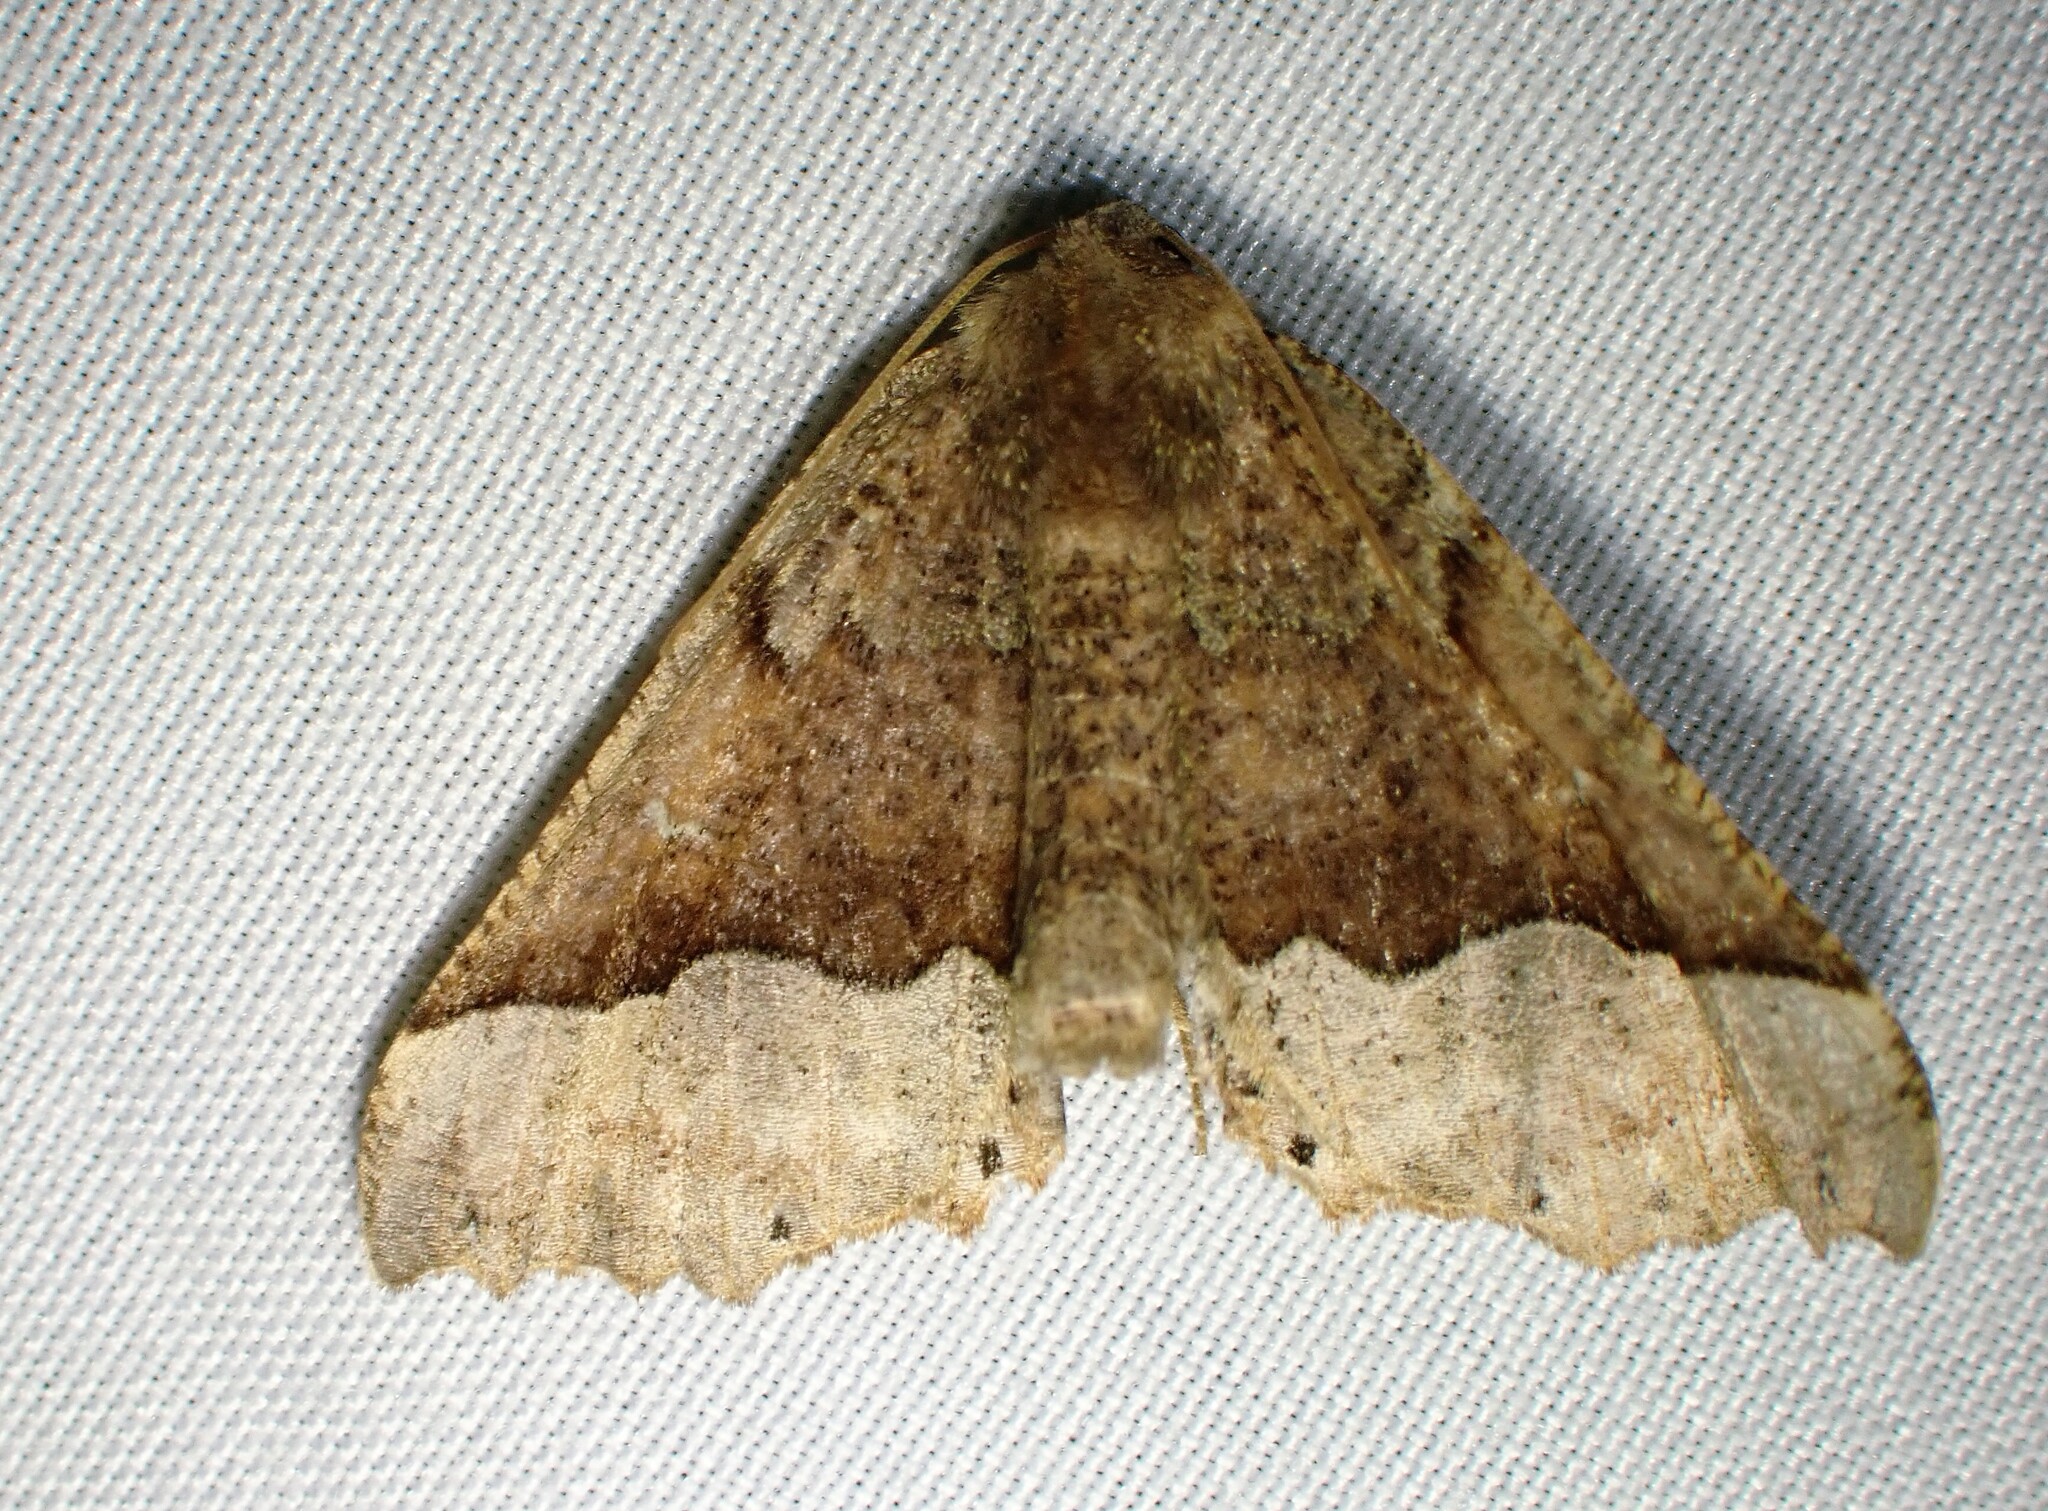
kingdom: Animalia
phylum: Arthropoda
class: Insecta
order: Lepidoptera
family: Geometridae
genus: Pero
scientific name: Pero morrisonaria
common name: Morrison's pero
